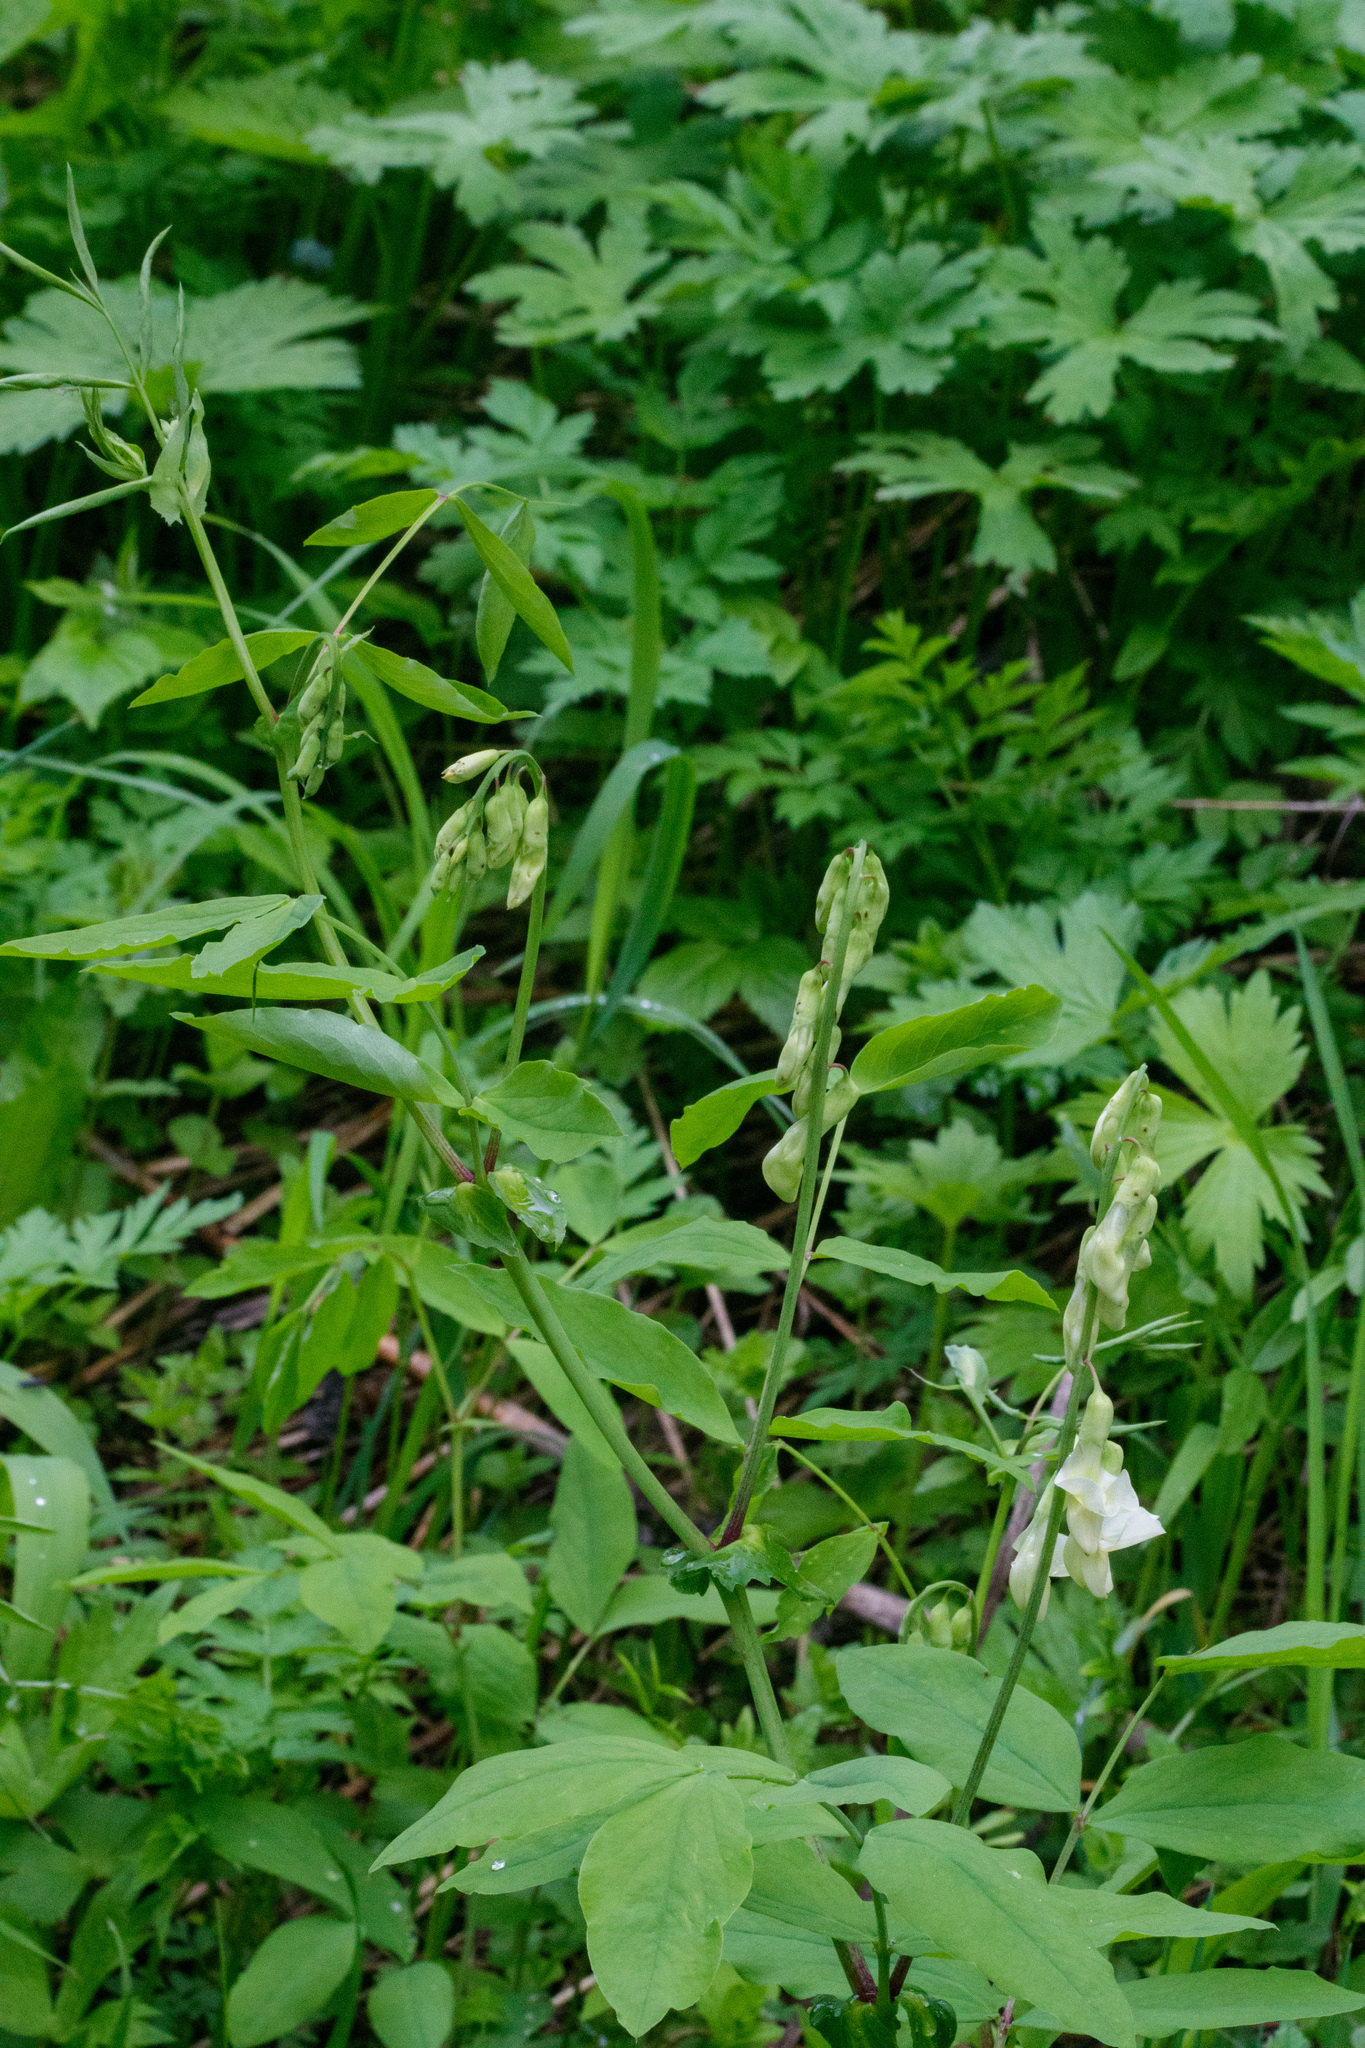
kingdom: Plantae
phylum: Tracheophyta
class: Magnoliopsida
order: Fabales
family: Fabaceae
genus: Lathyrus
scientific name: Lathyrus gmelinii
